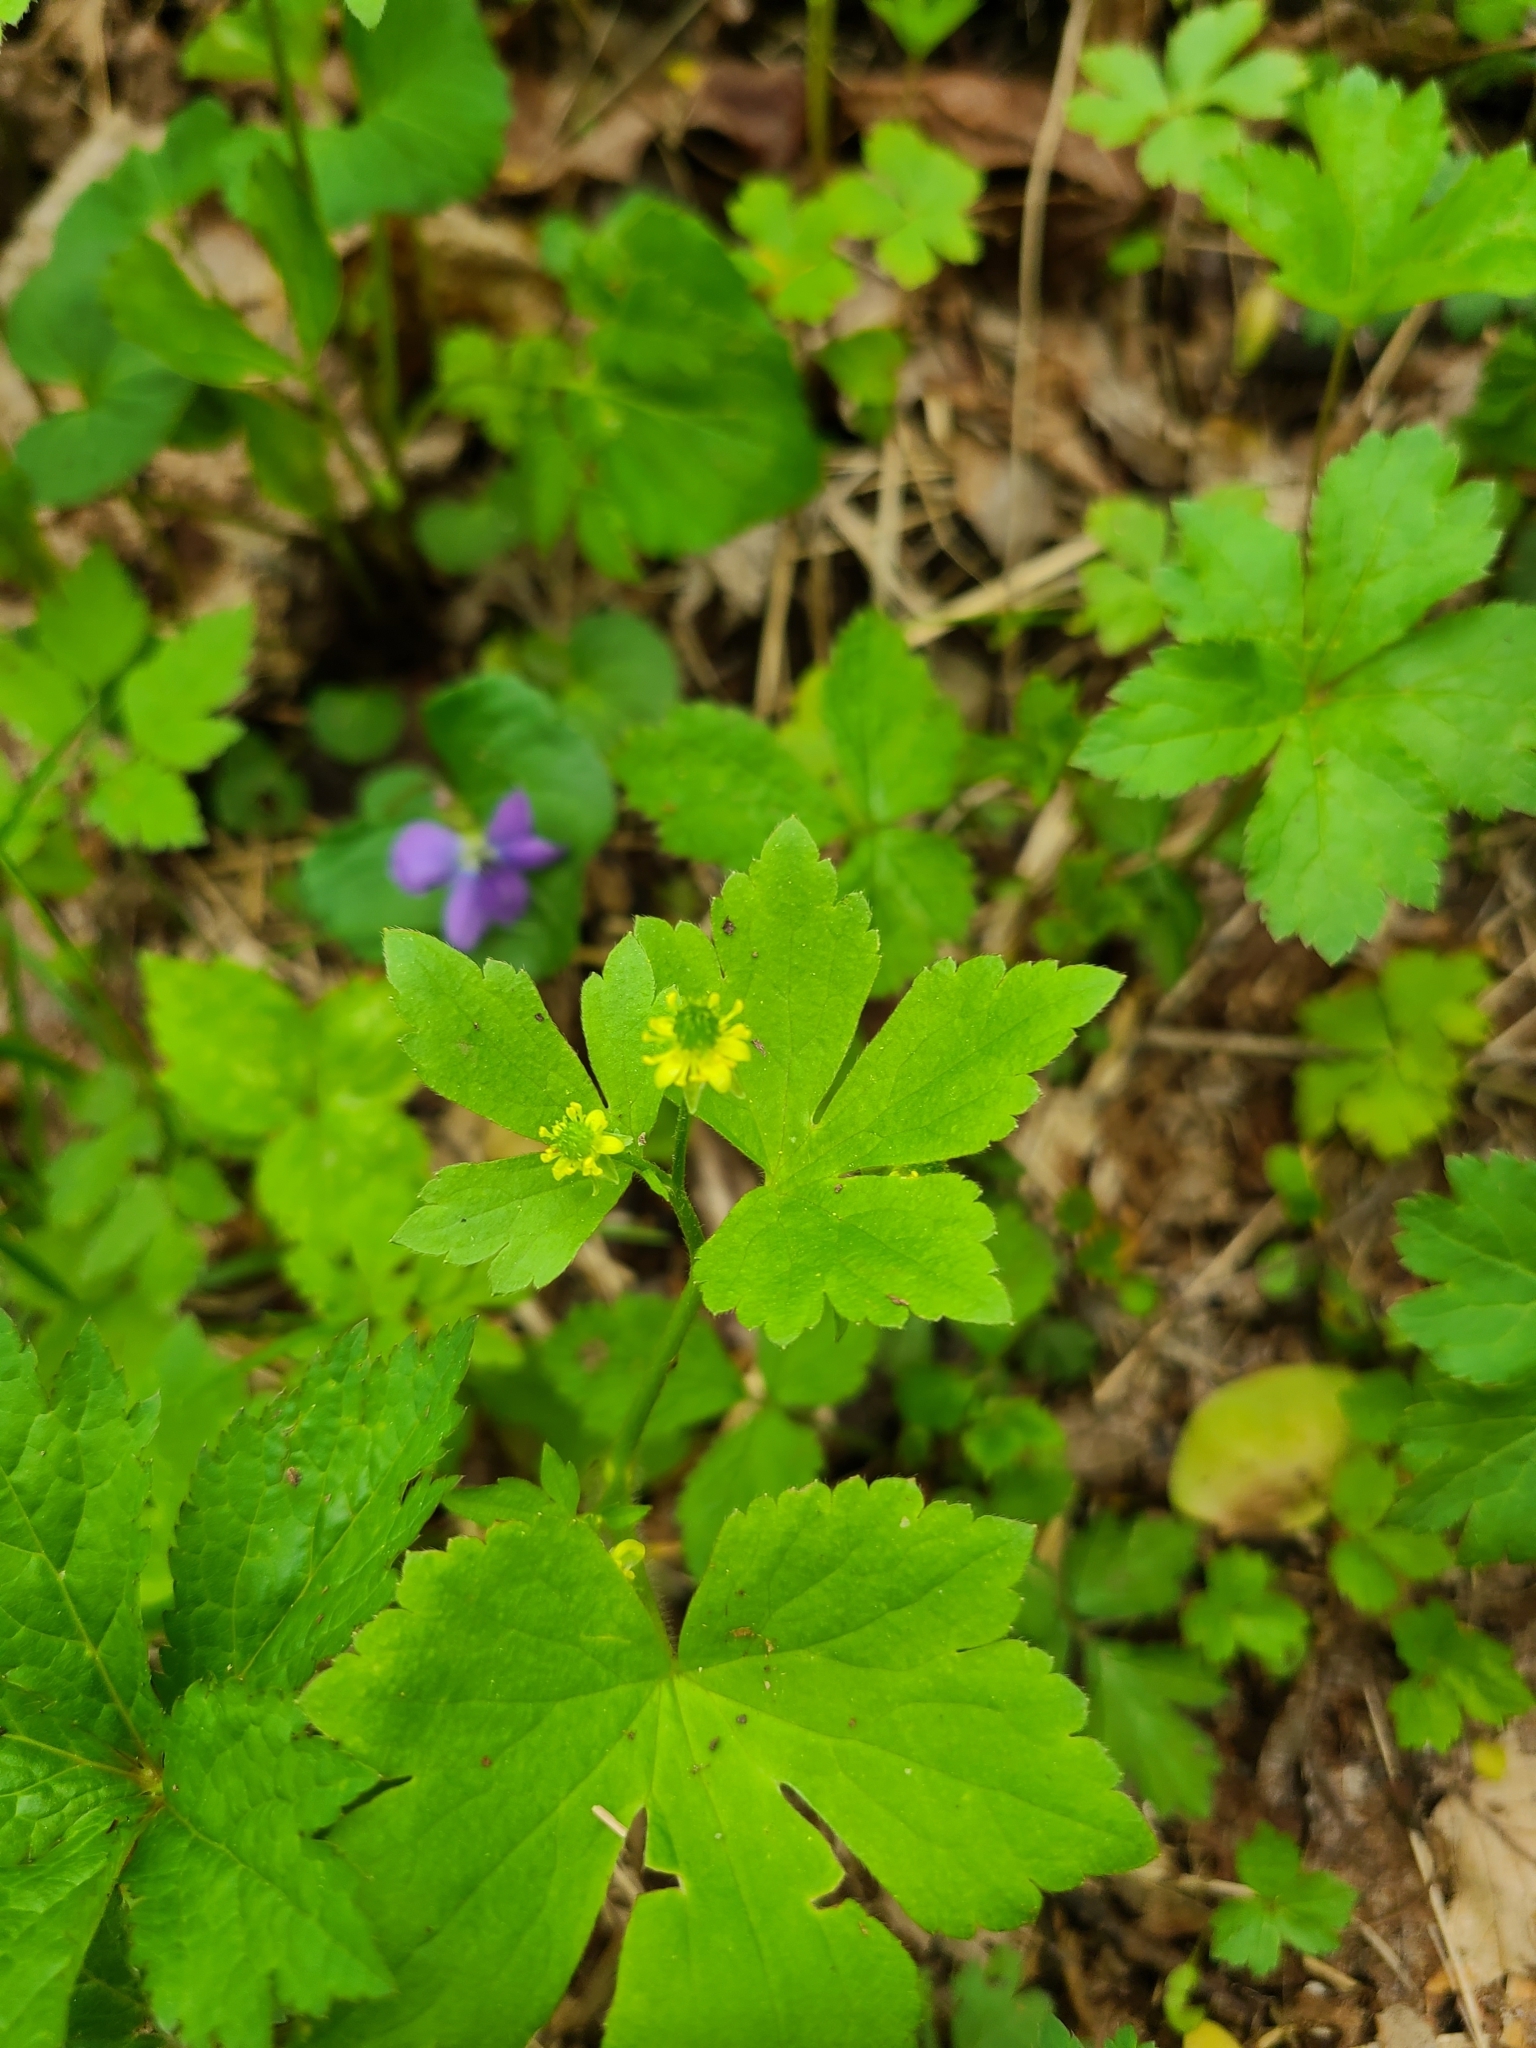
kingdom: Plantae
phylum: Tracheophyta
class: Magnoliopsida
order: Ranunculales
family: Ranunculaceae
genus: Ranunculus
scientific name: Ranunculus recurvatus
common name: Blisterwort
